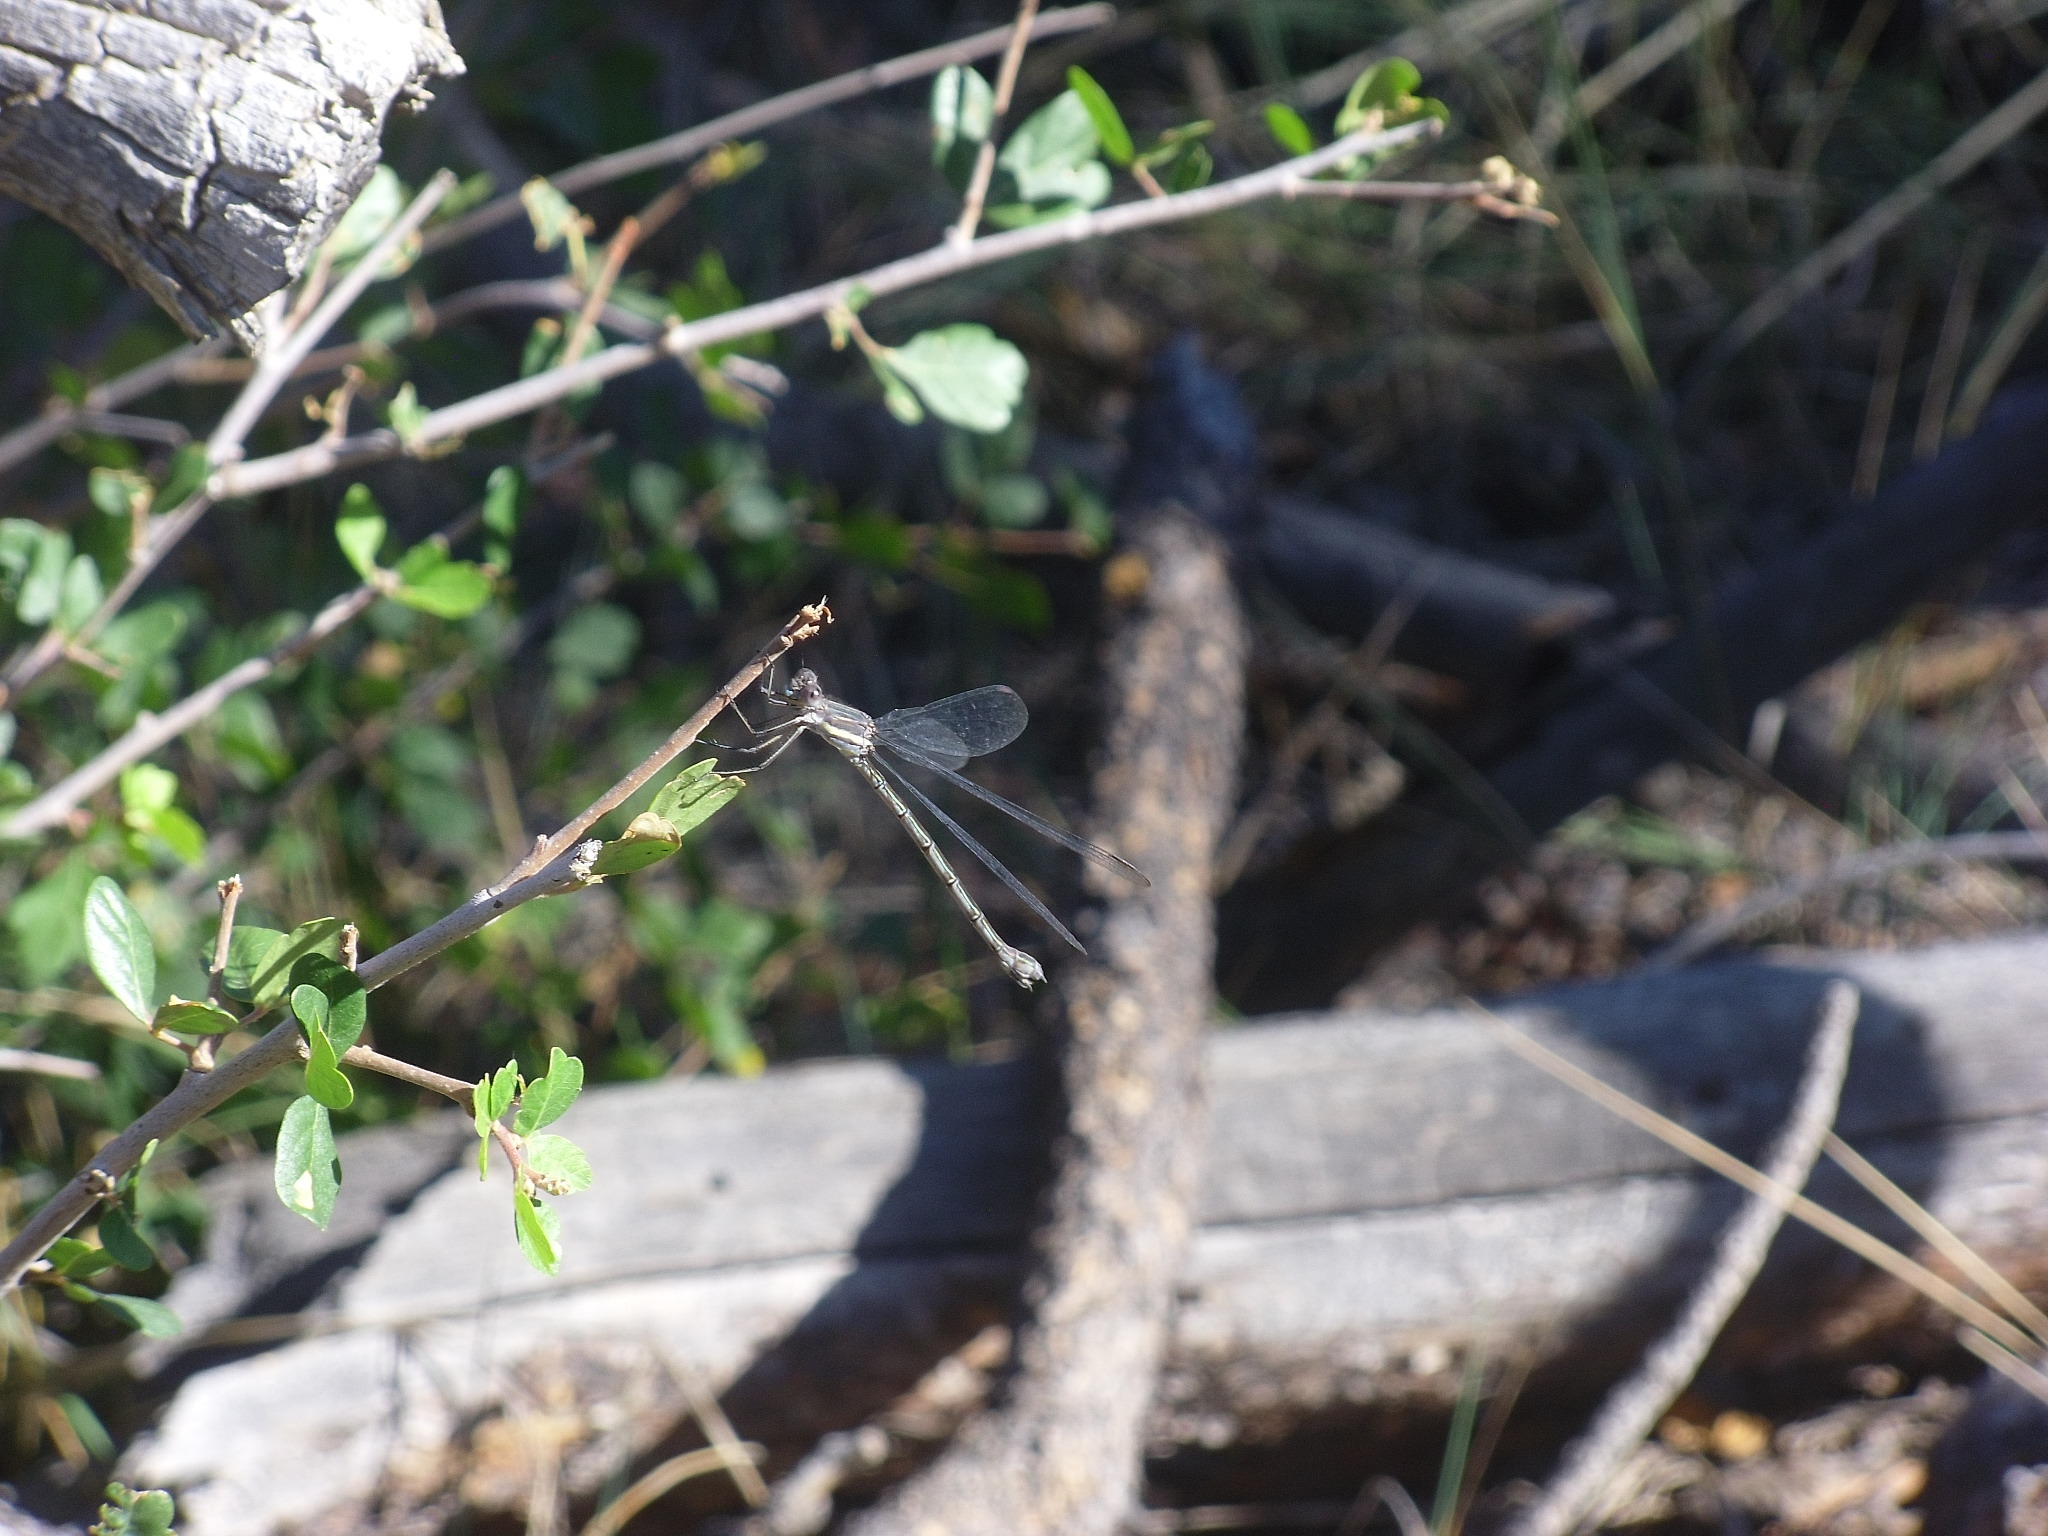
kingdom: Animalia
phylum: Arthropoda
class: Insecta
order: Odonata
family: Lestidae
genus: Archilestes
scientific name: Archilestes grandis
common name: Great spreadwing
